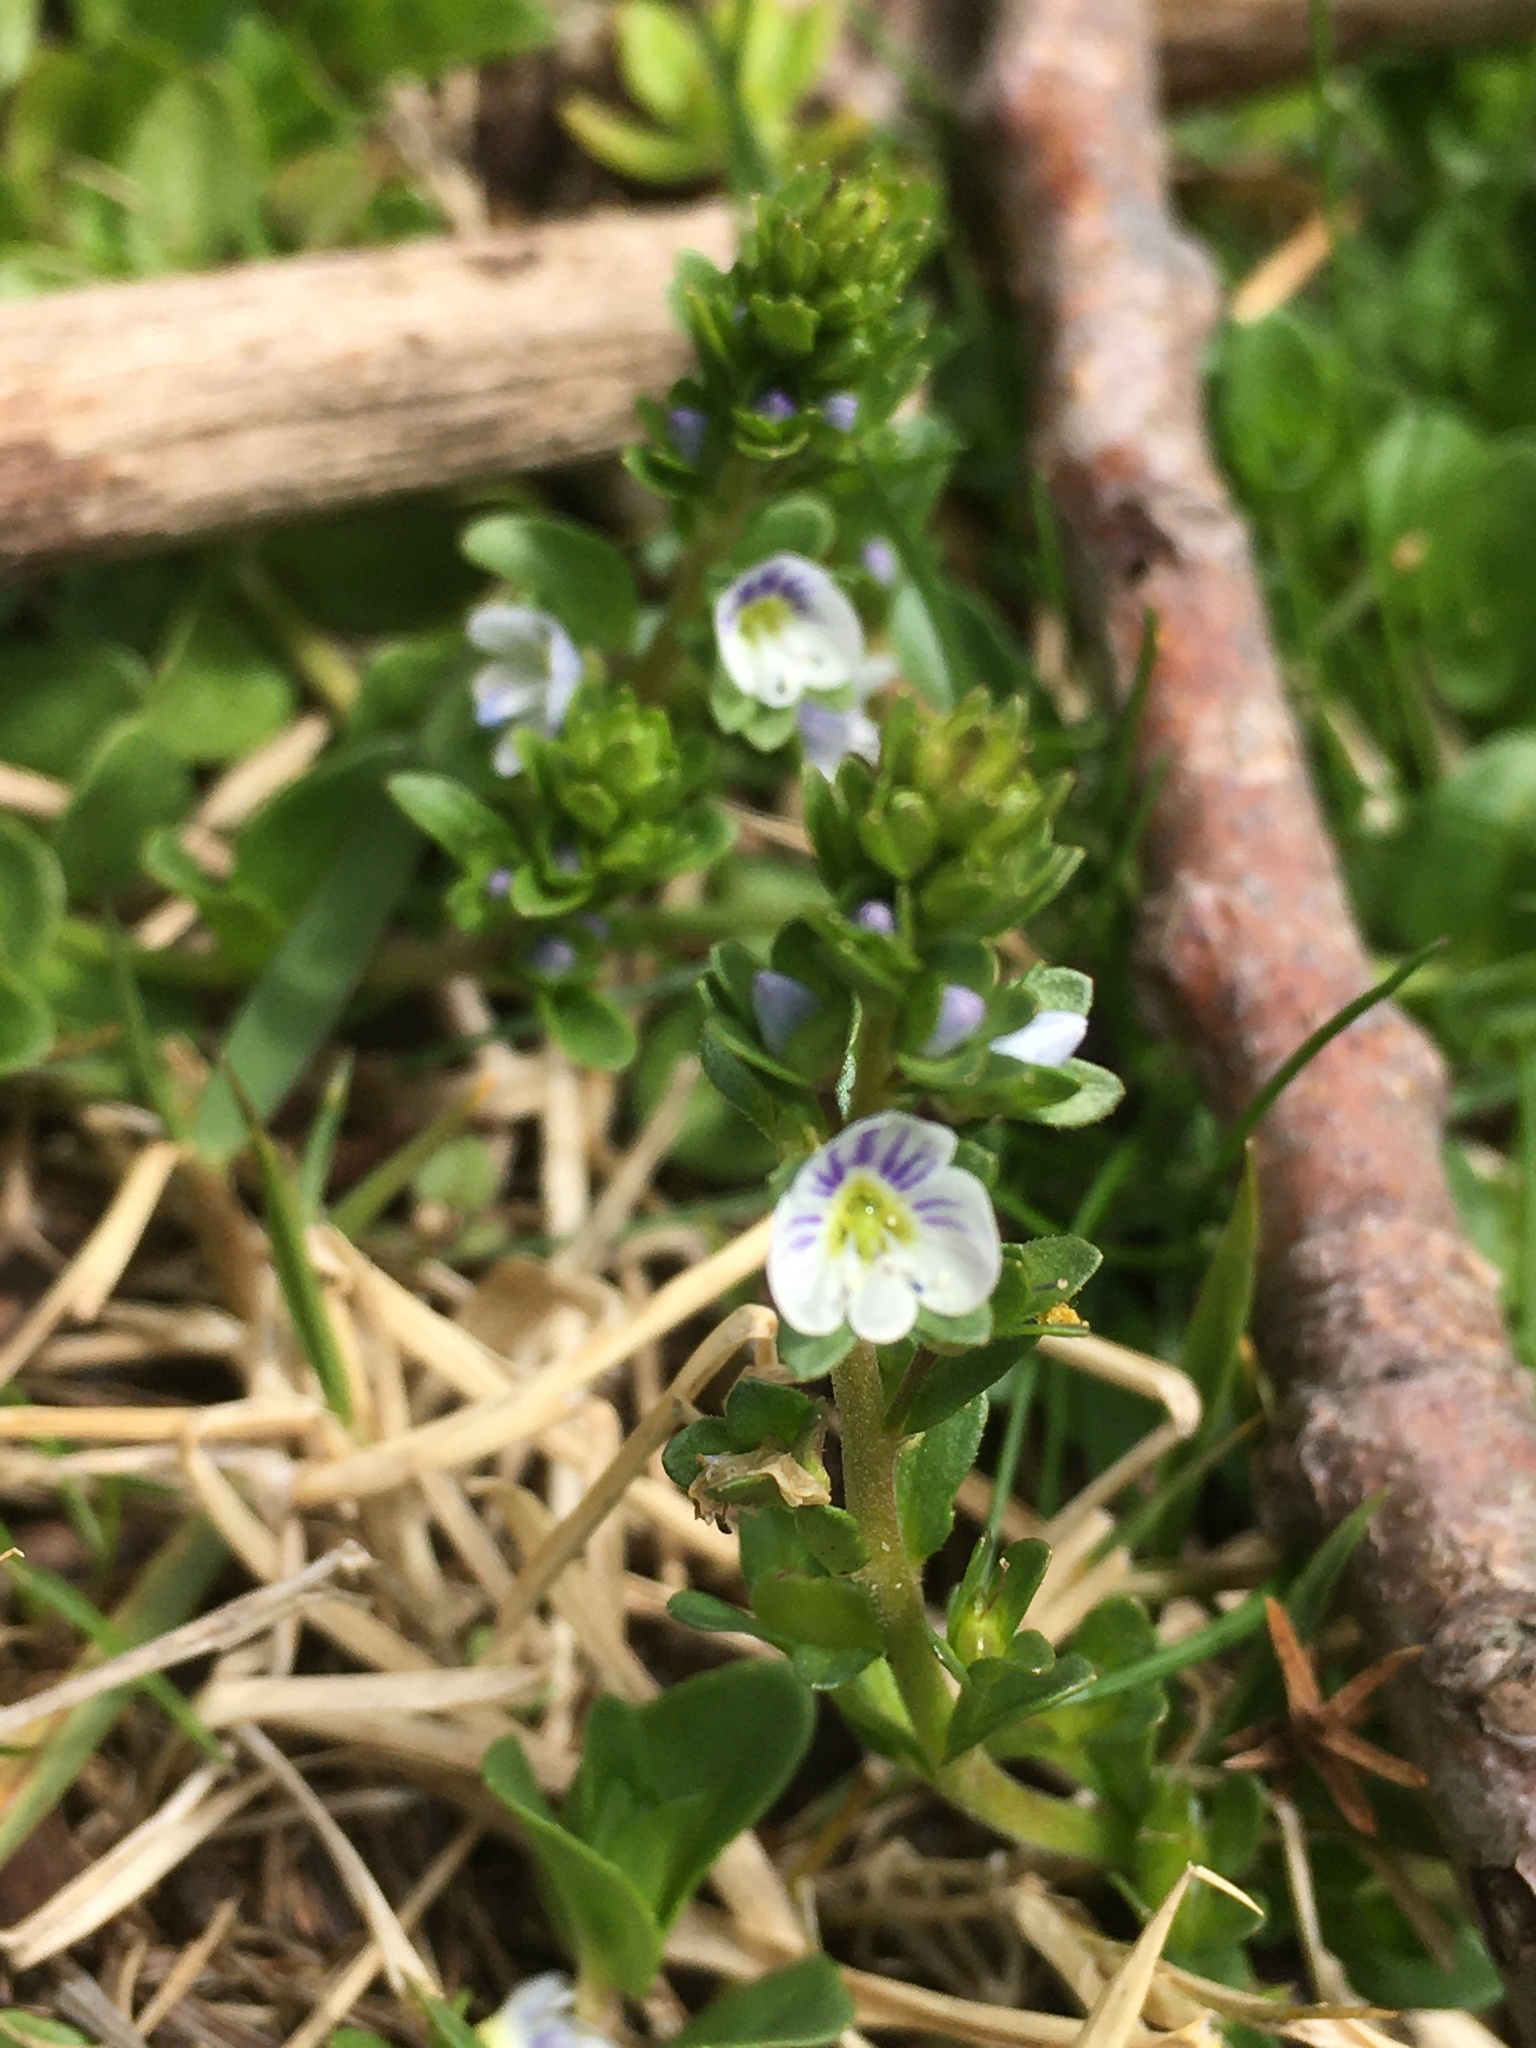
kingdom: Plantae
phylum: Tracheophyta
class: Magnoliopsida
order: Lamiales
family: Plantaginaceae
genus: Veronica
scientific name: Veronica serpyllifolia
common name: Thyme-leaved speedwell
